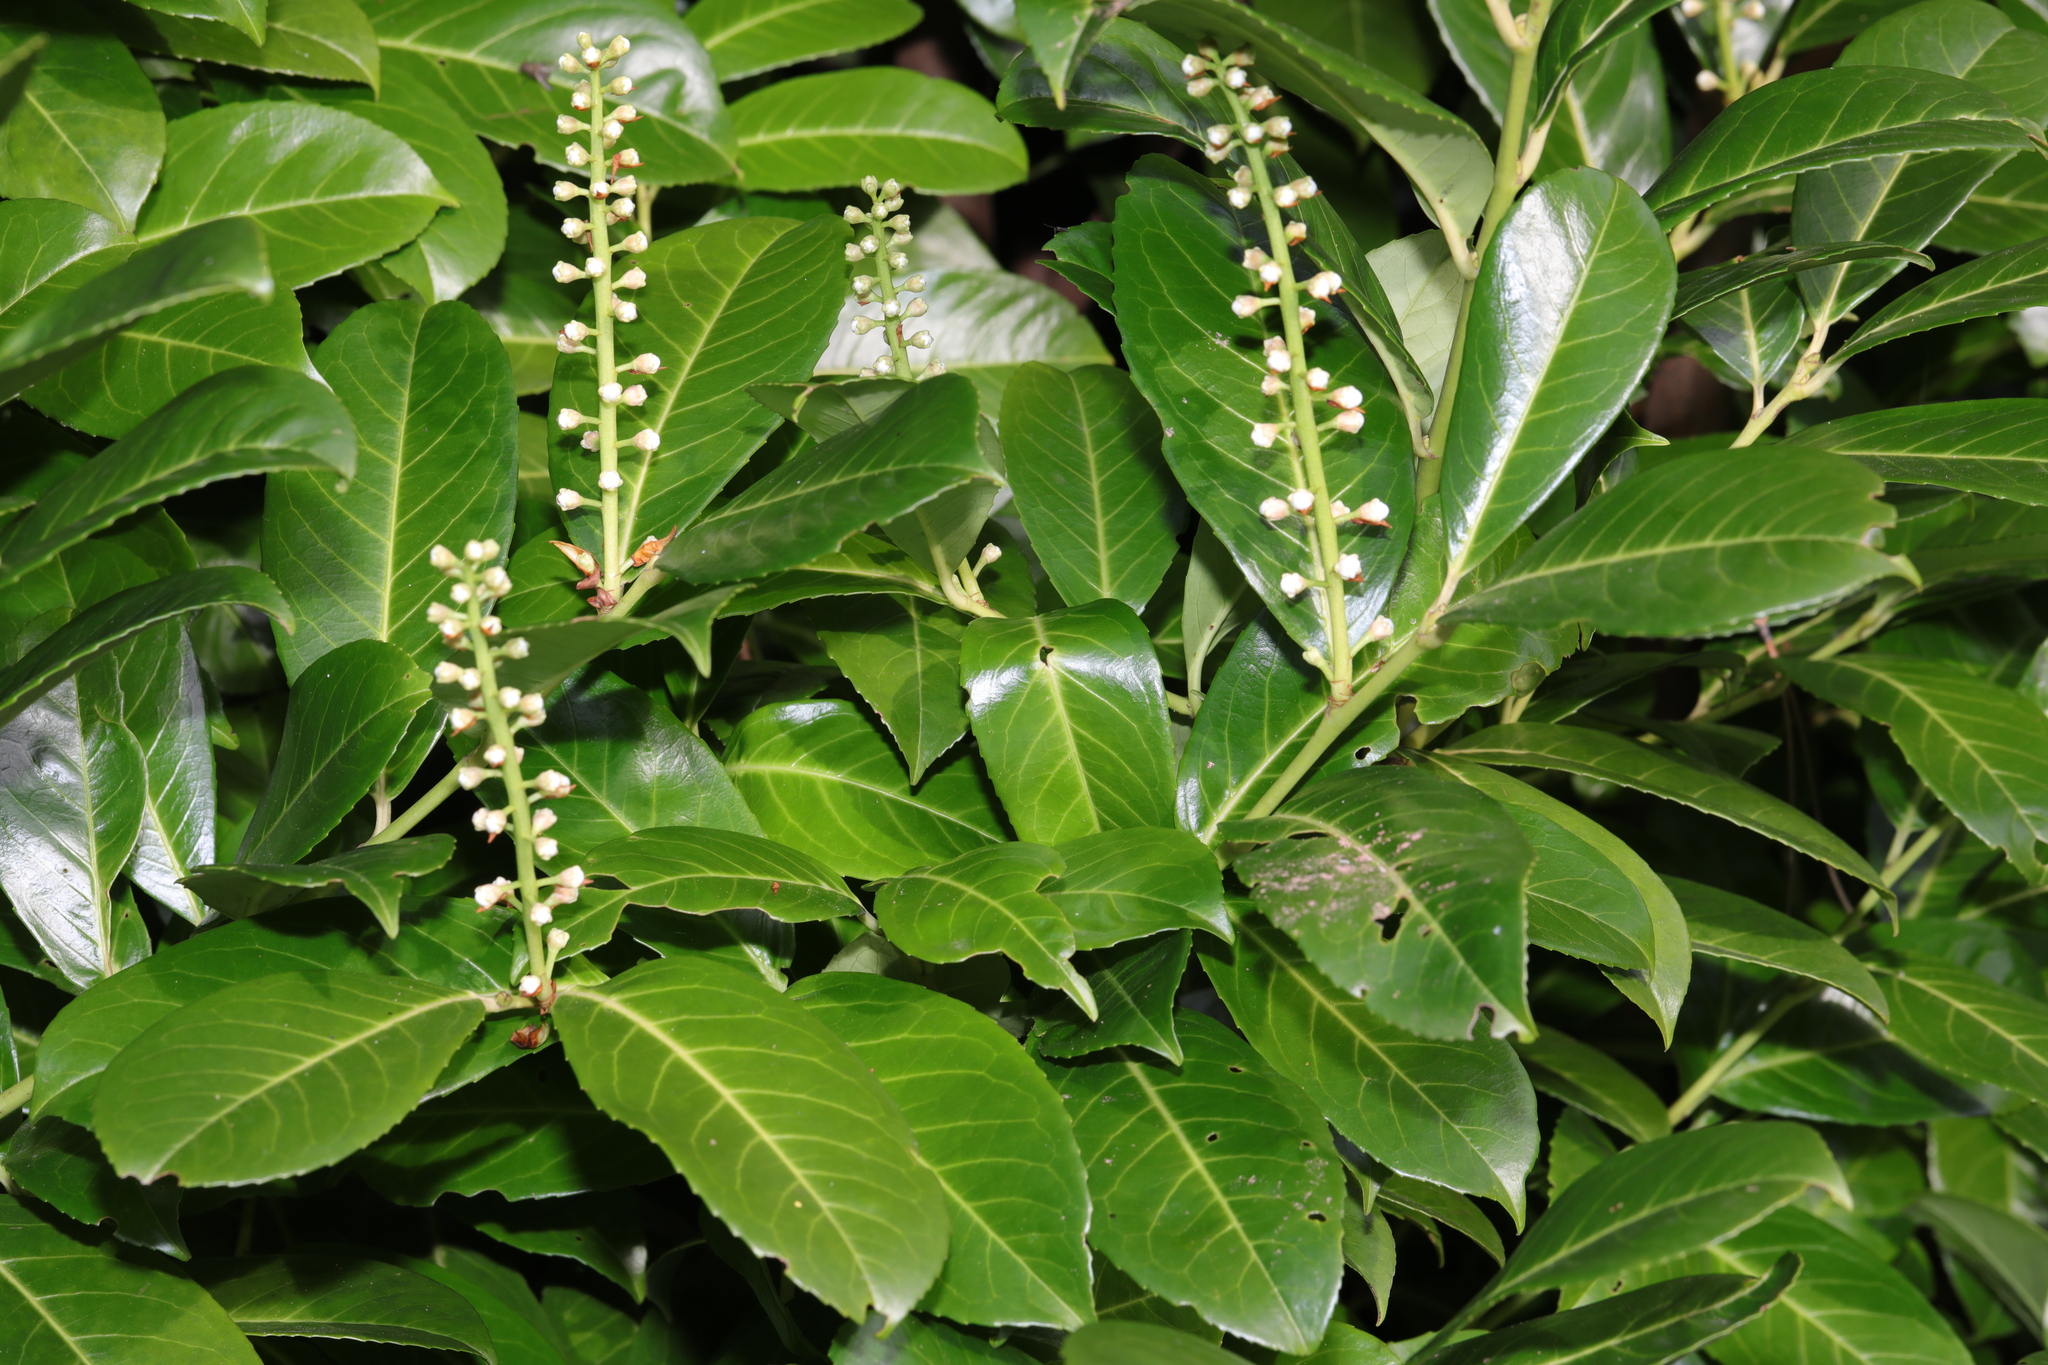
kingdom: Plantae
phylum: Tracheophyta
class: Magnoliopsida
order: Rosales
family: Rosaceae
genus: Prunus
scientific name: Prunus laurocerasus
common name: Cherry laurel
